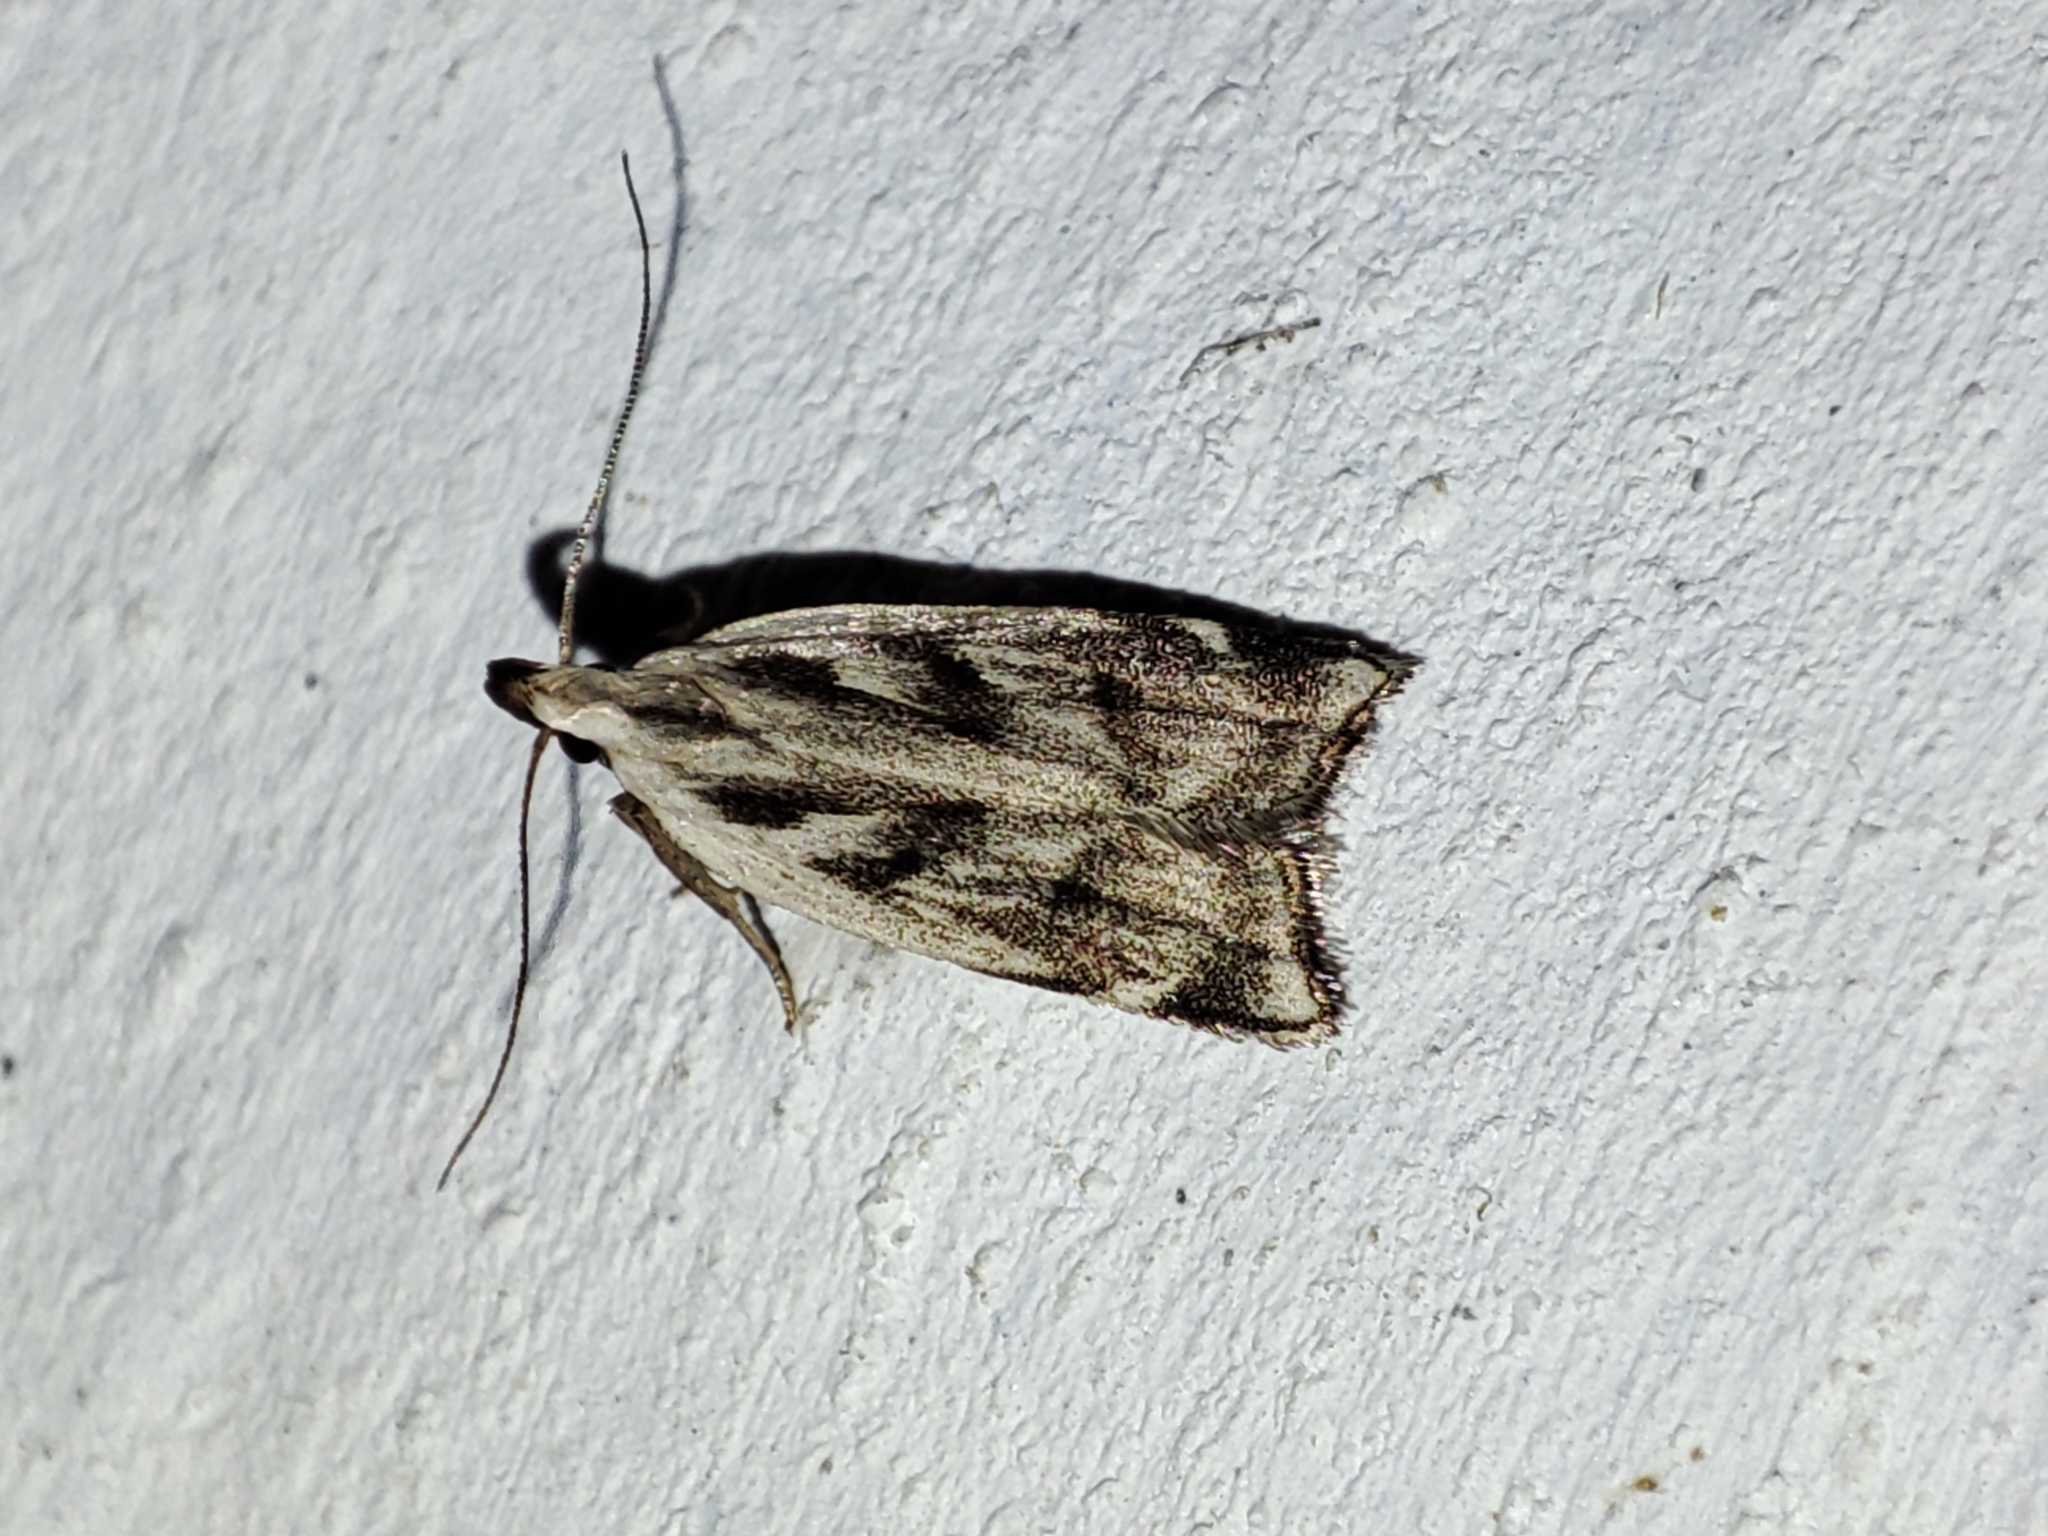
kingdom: Animalia
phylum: Arthropoda
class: Insecta
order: Lepidoptera
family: Gelechiidae
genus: Dichomeris
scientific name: Dichomeris rasilella
